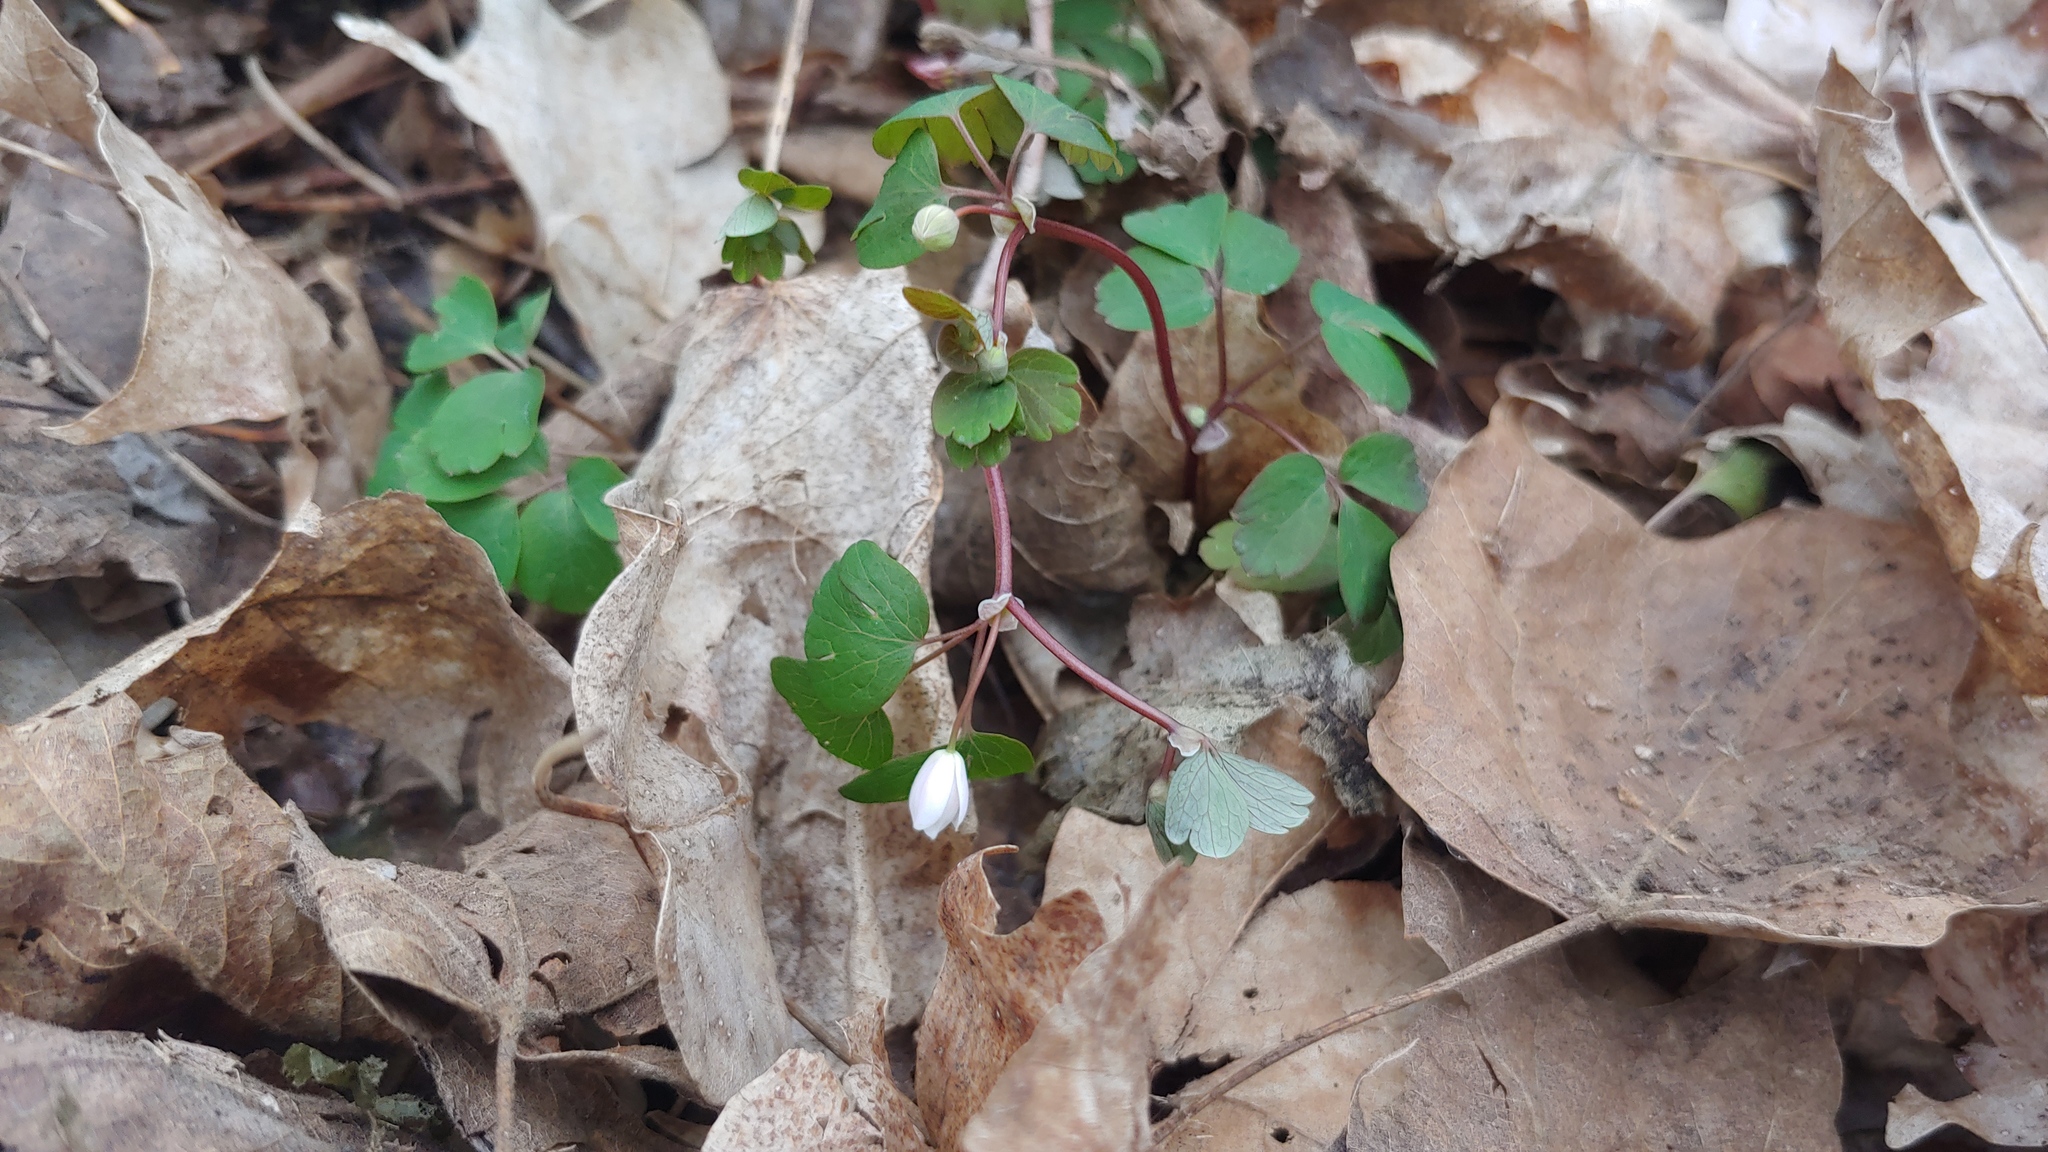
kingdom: Plantae
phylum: Tracheophyta
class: Magnoliopsida
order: Ranunculales
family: Ranunculaceae
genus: Enemion
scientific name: Enemion biternatum
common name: Eastern false rue-anemone
